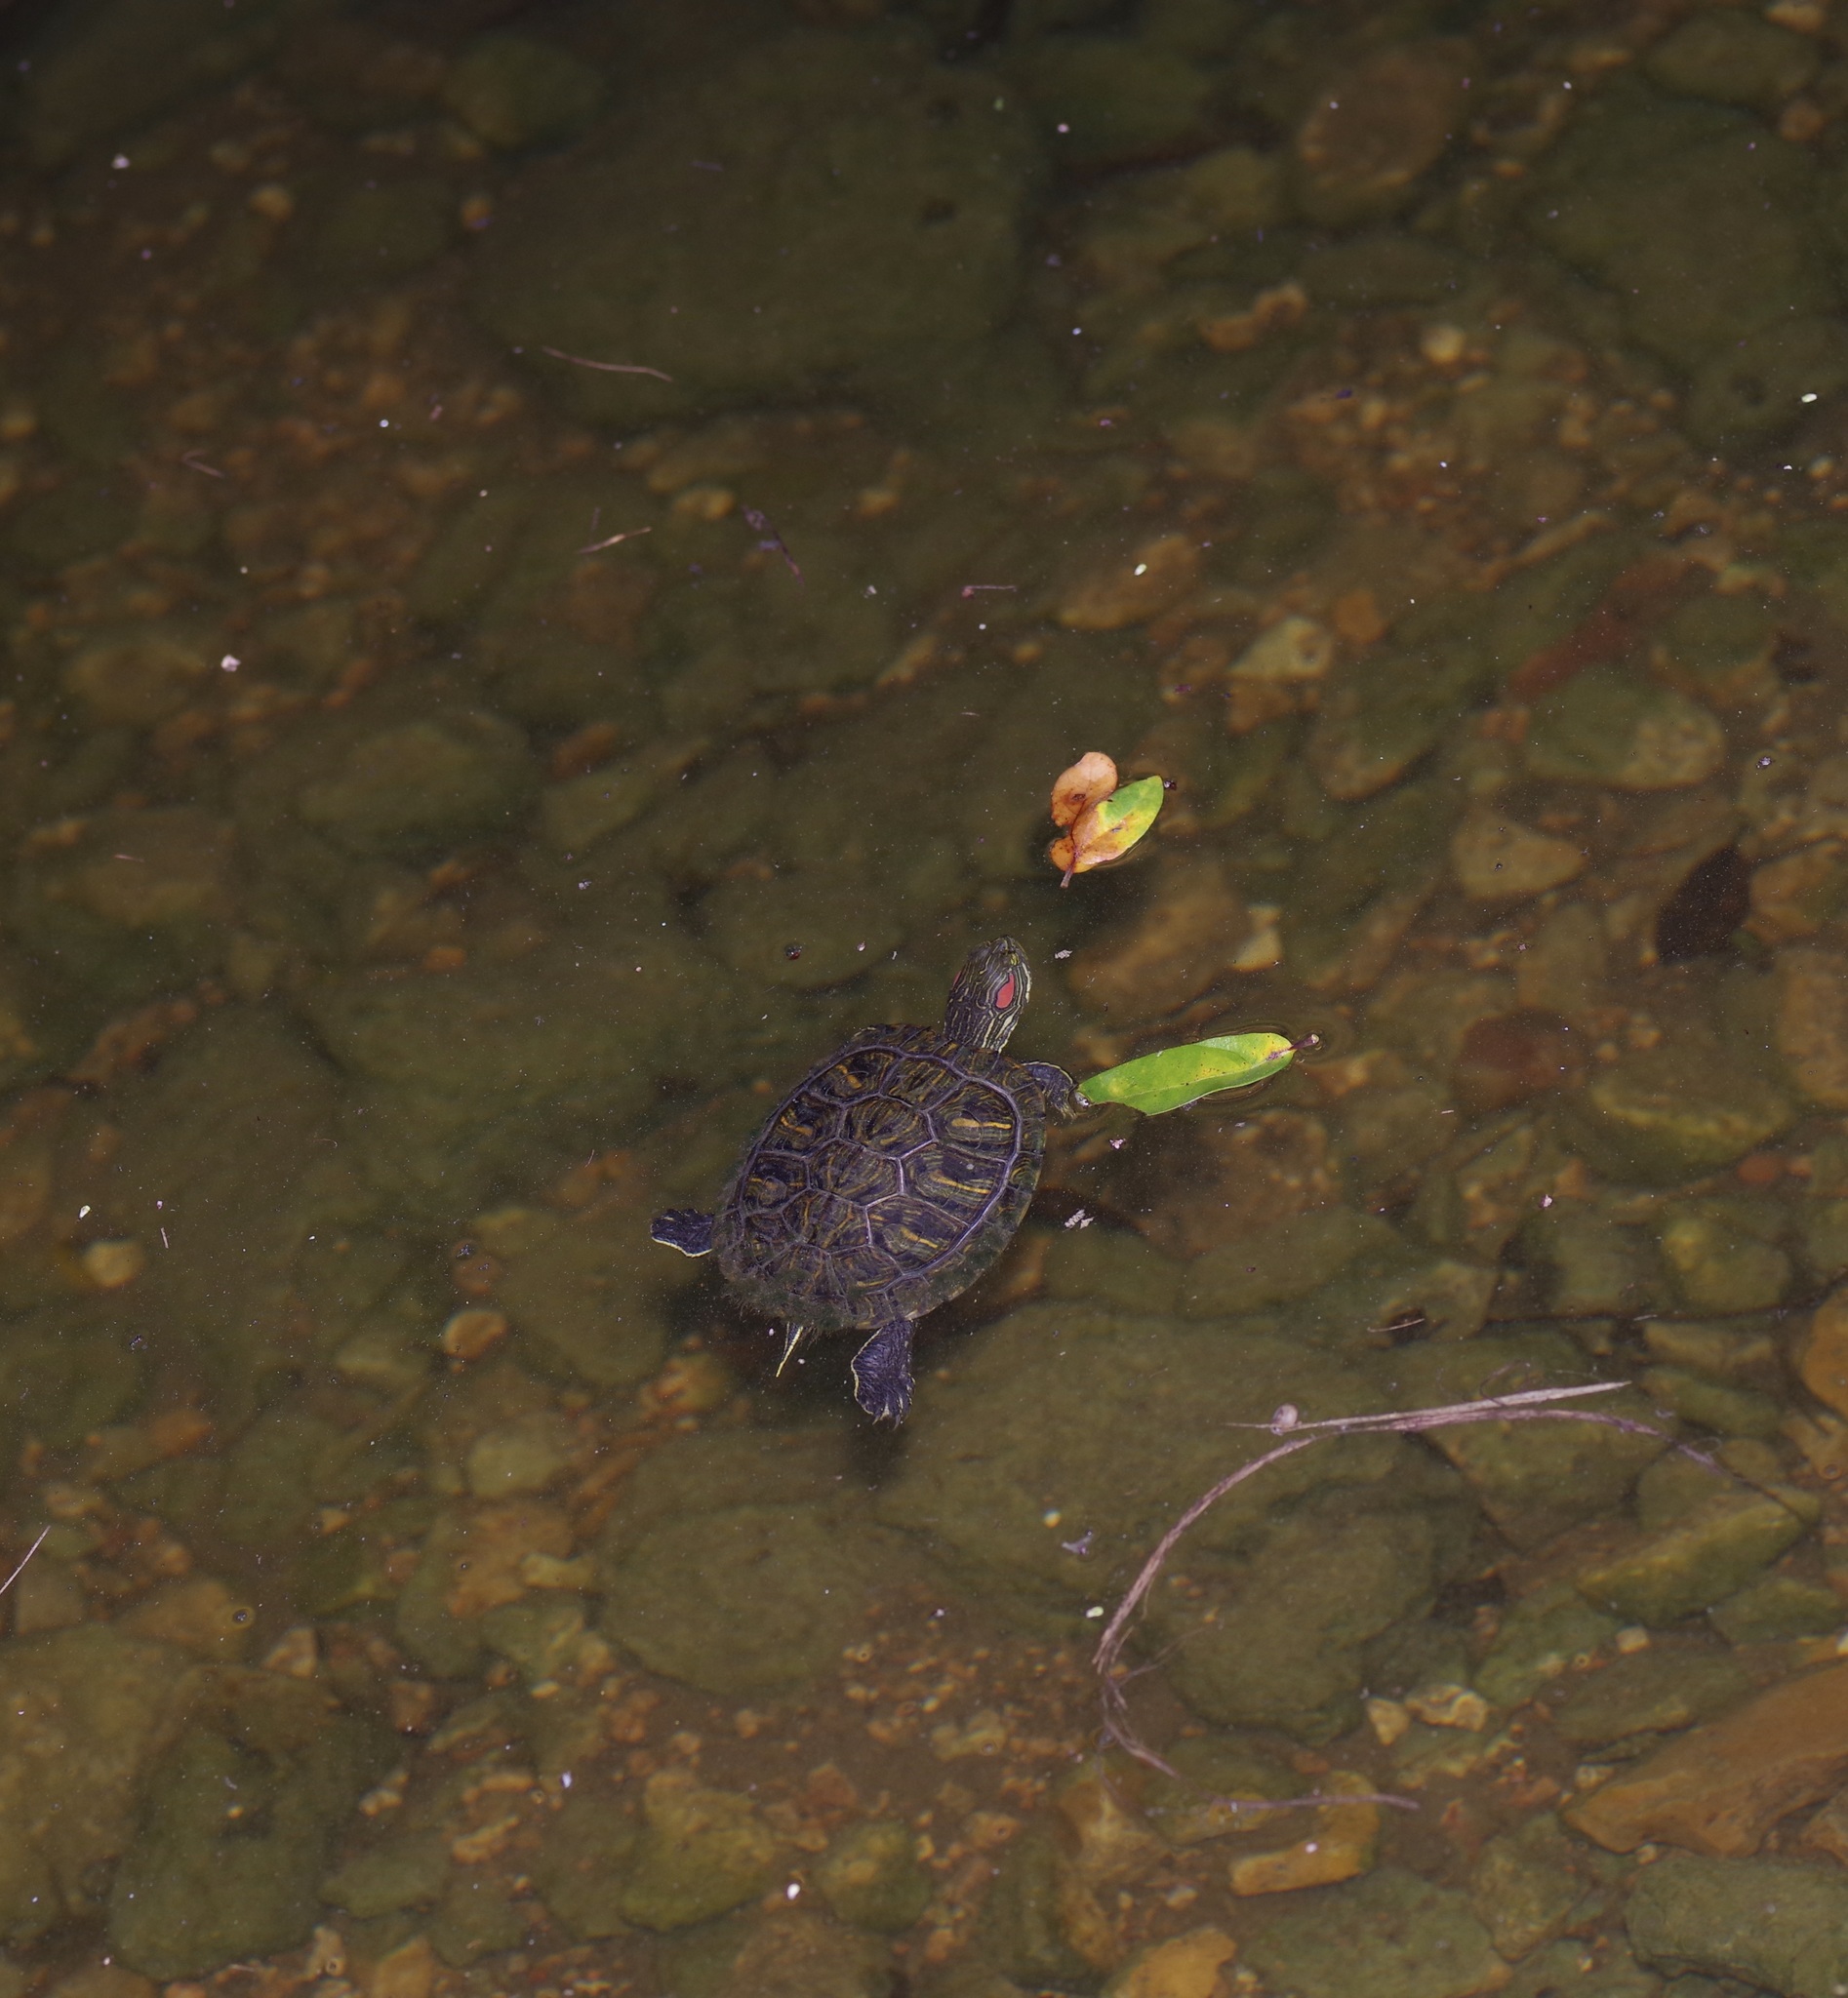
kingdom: Animalia
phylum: Chordata
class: Testudines
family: Emydidae
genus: Trachemys
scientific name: Trachemys scripta
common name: Slider
